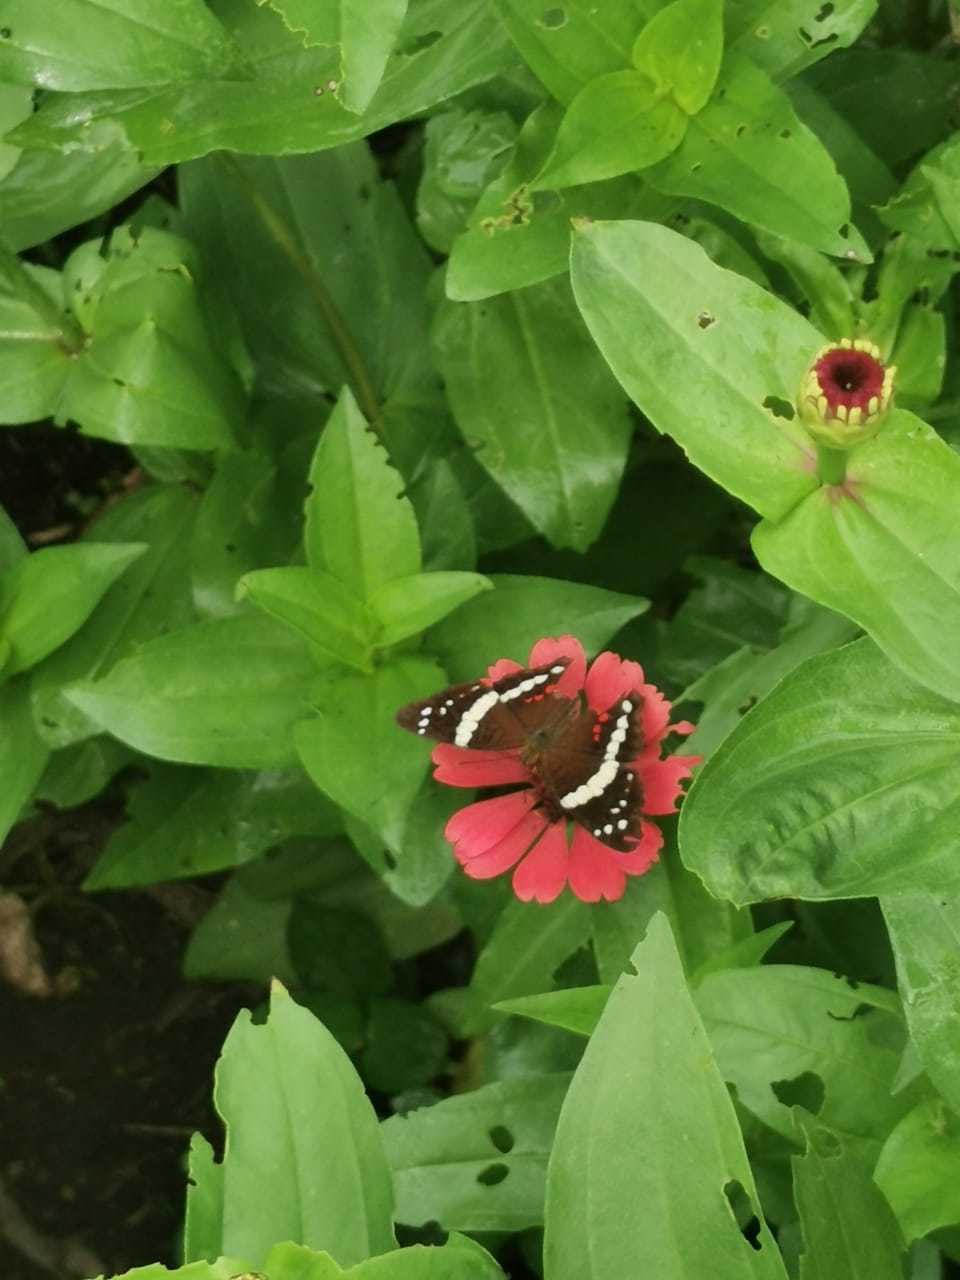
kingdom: Animalia
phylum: Arthropoda
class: Insecta
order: Lepidoptera
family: Nymphalidae
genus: Anartia
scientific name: Anartia fatima
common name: Banded peacock
